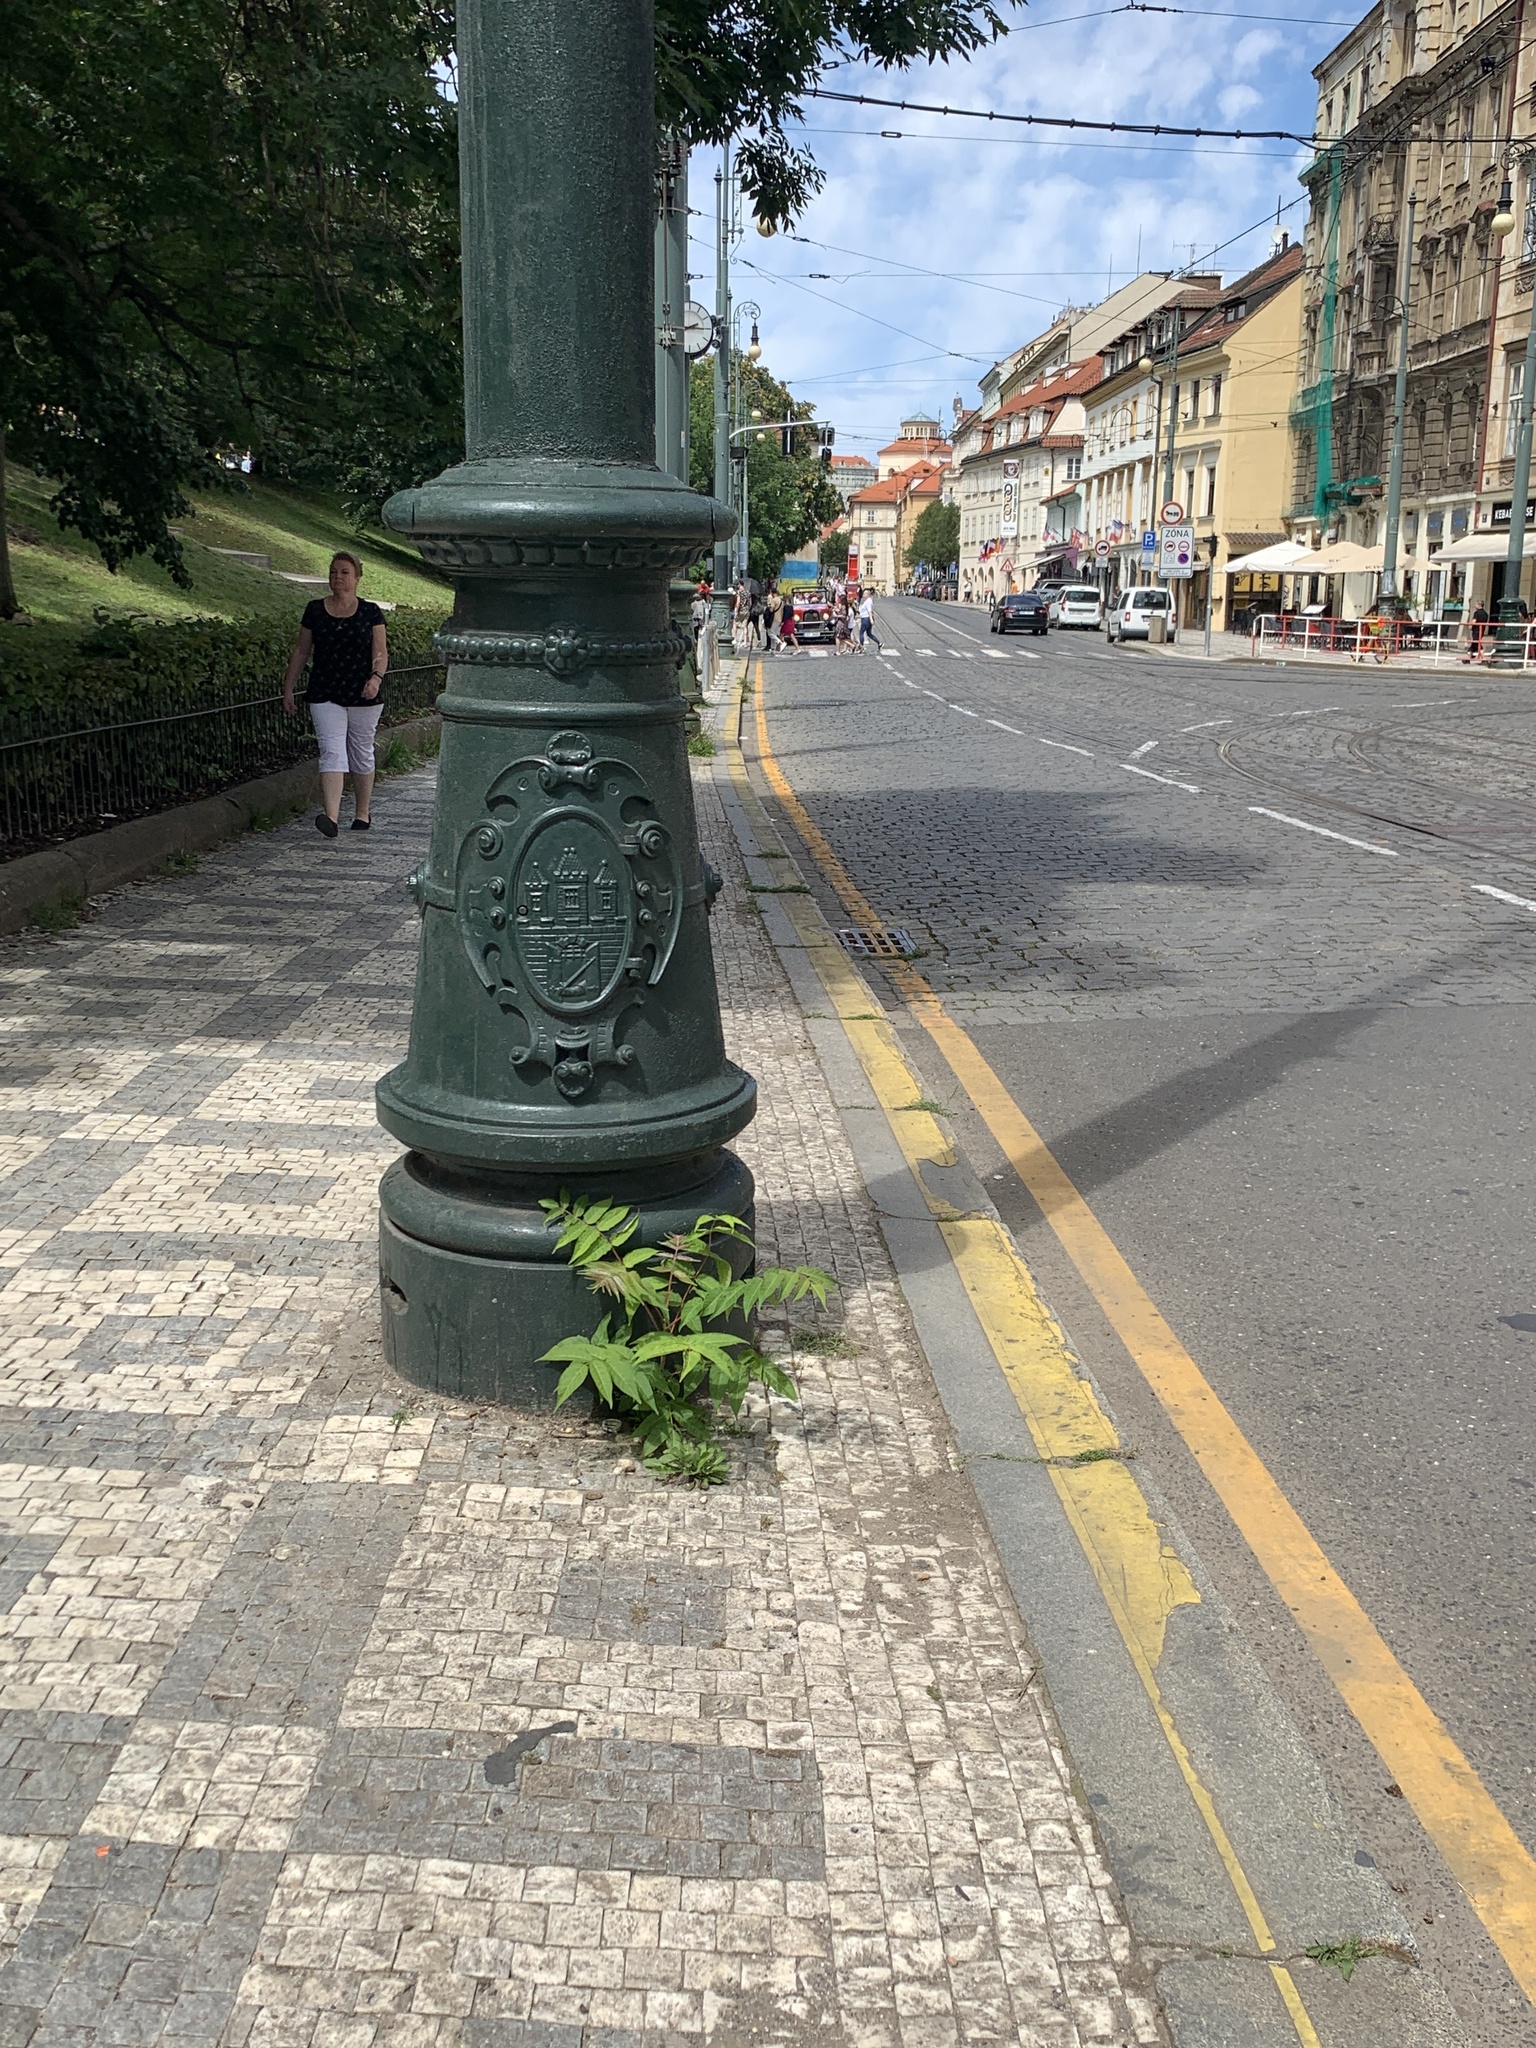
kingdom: Plantae
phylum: Tracheophyta
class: Magnoliopsida
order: Sapindales
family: Simaroubaceae
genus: Ailanthus
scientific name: Ailanthus altissima
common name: Tree-of-heaven
